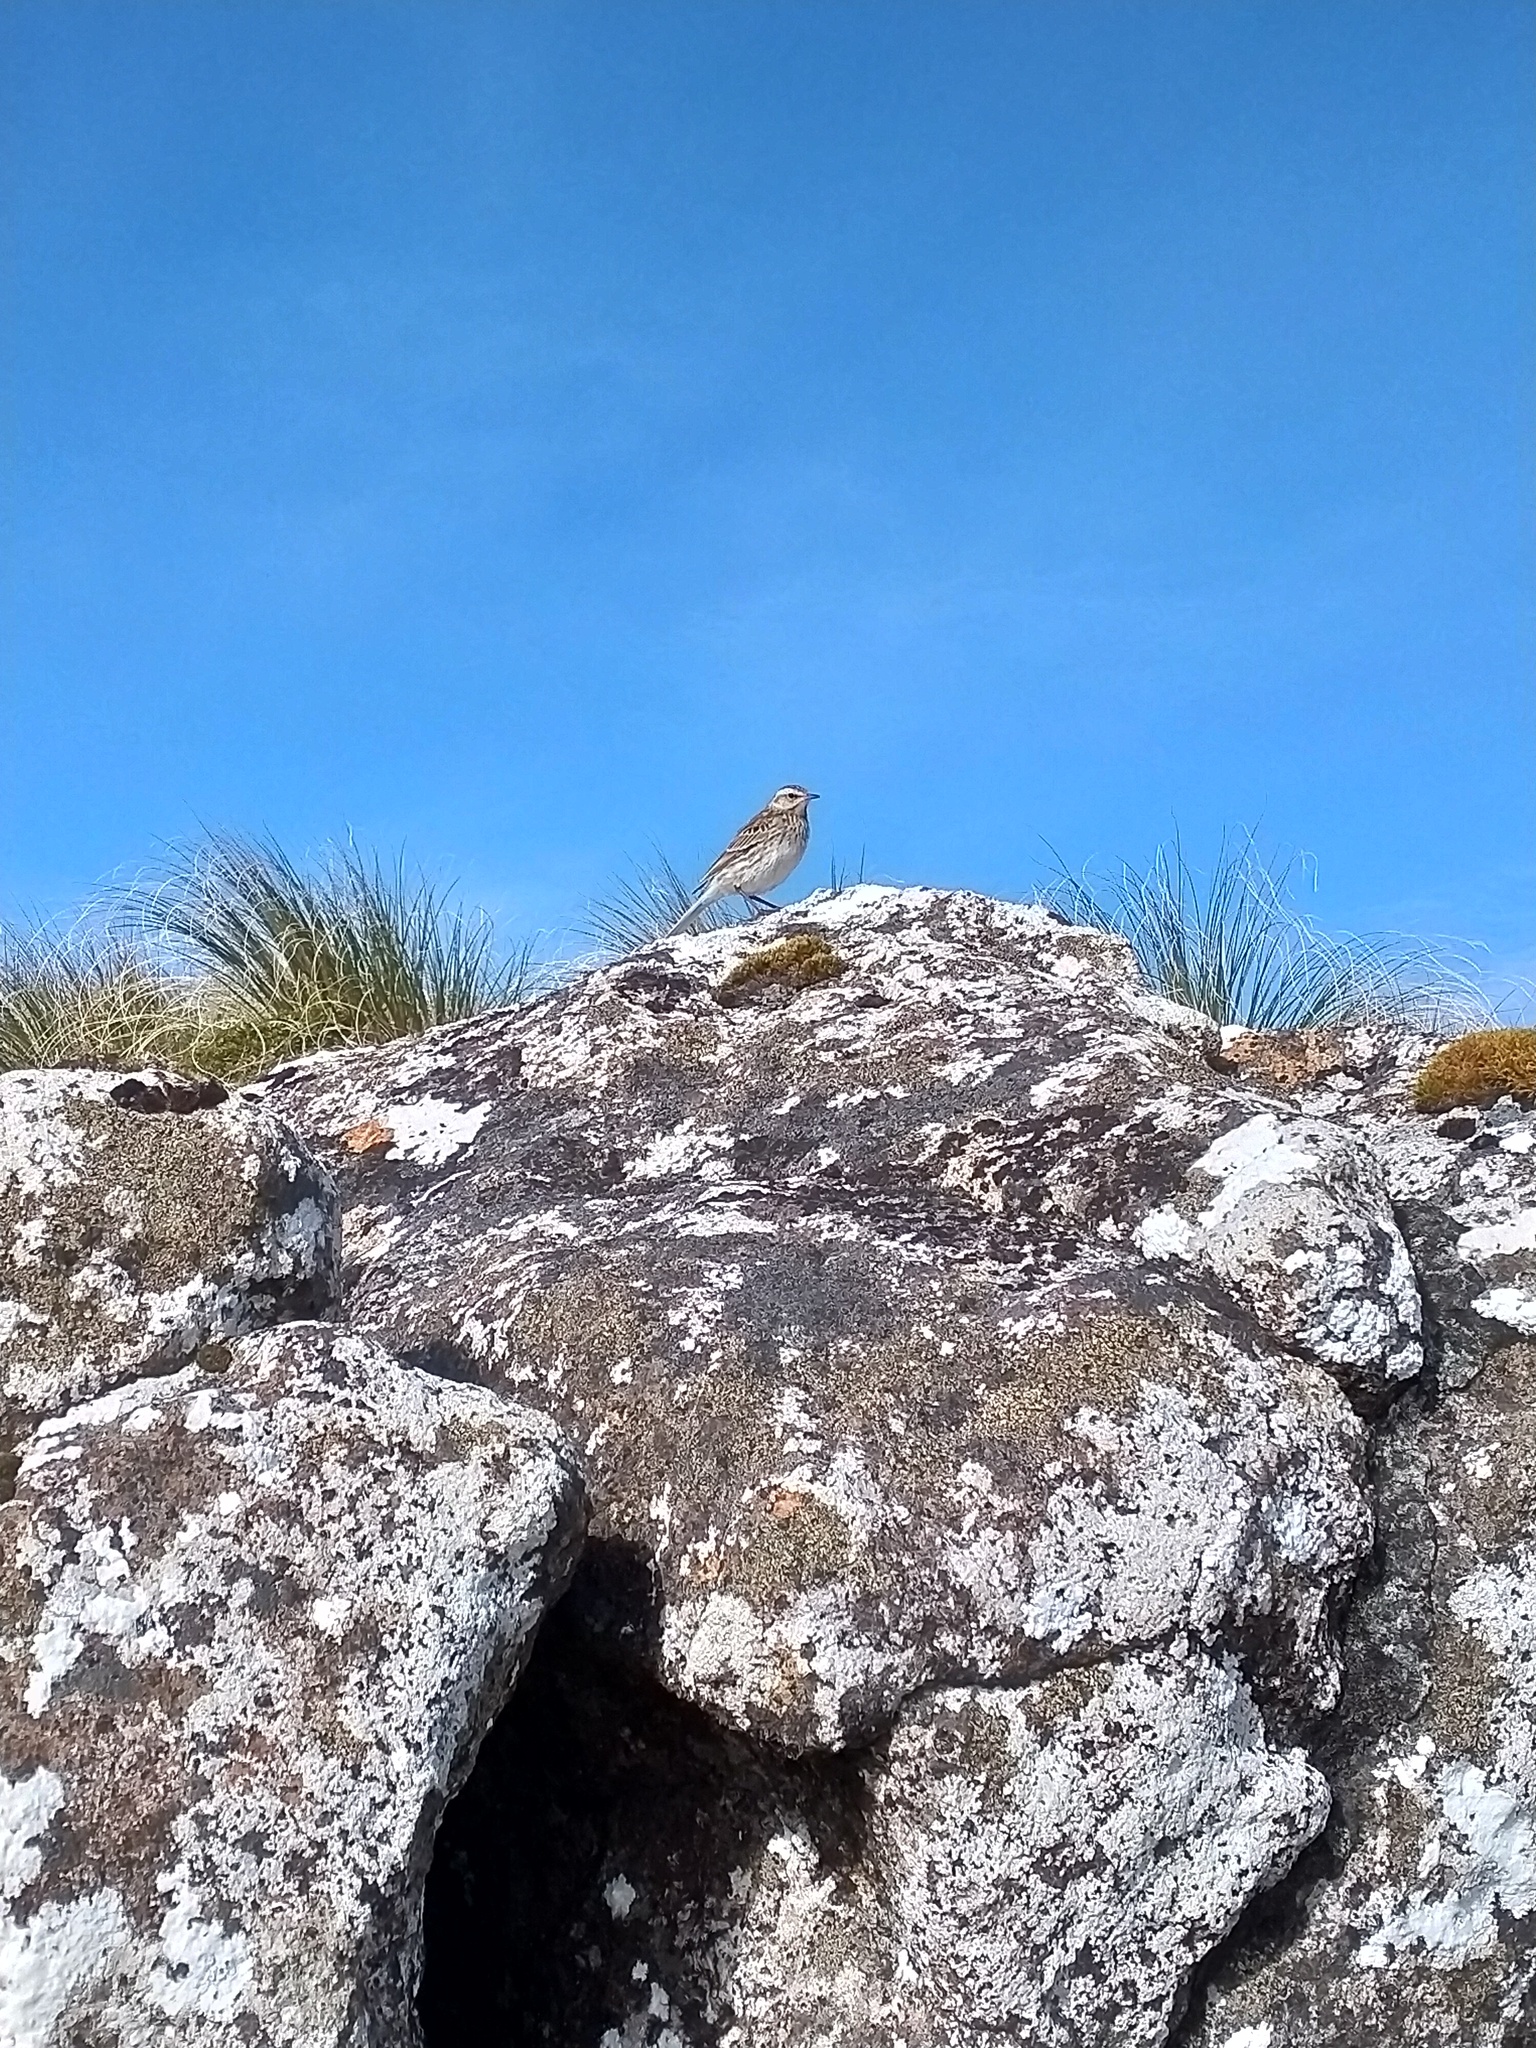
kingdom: Animalia
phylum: Chordata
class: Aves
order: Passeriformes
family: Motacillidae
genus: Anthus
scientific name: Anthus novaeseelandiae
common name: New zealand pipit
